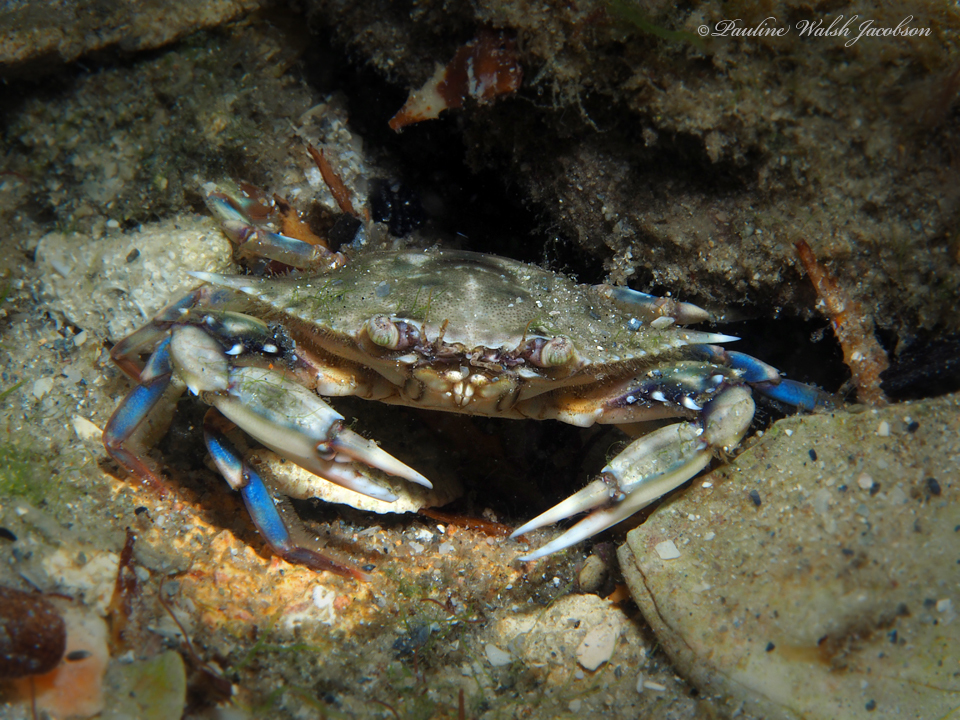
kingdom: Animalia
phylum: Arthropoda
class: Malacostraca
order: Decapoda
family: Portunidae
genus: Callinectes
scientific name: Callinectes ornatus
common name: Ornate crab
